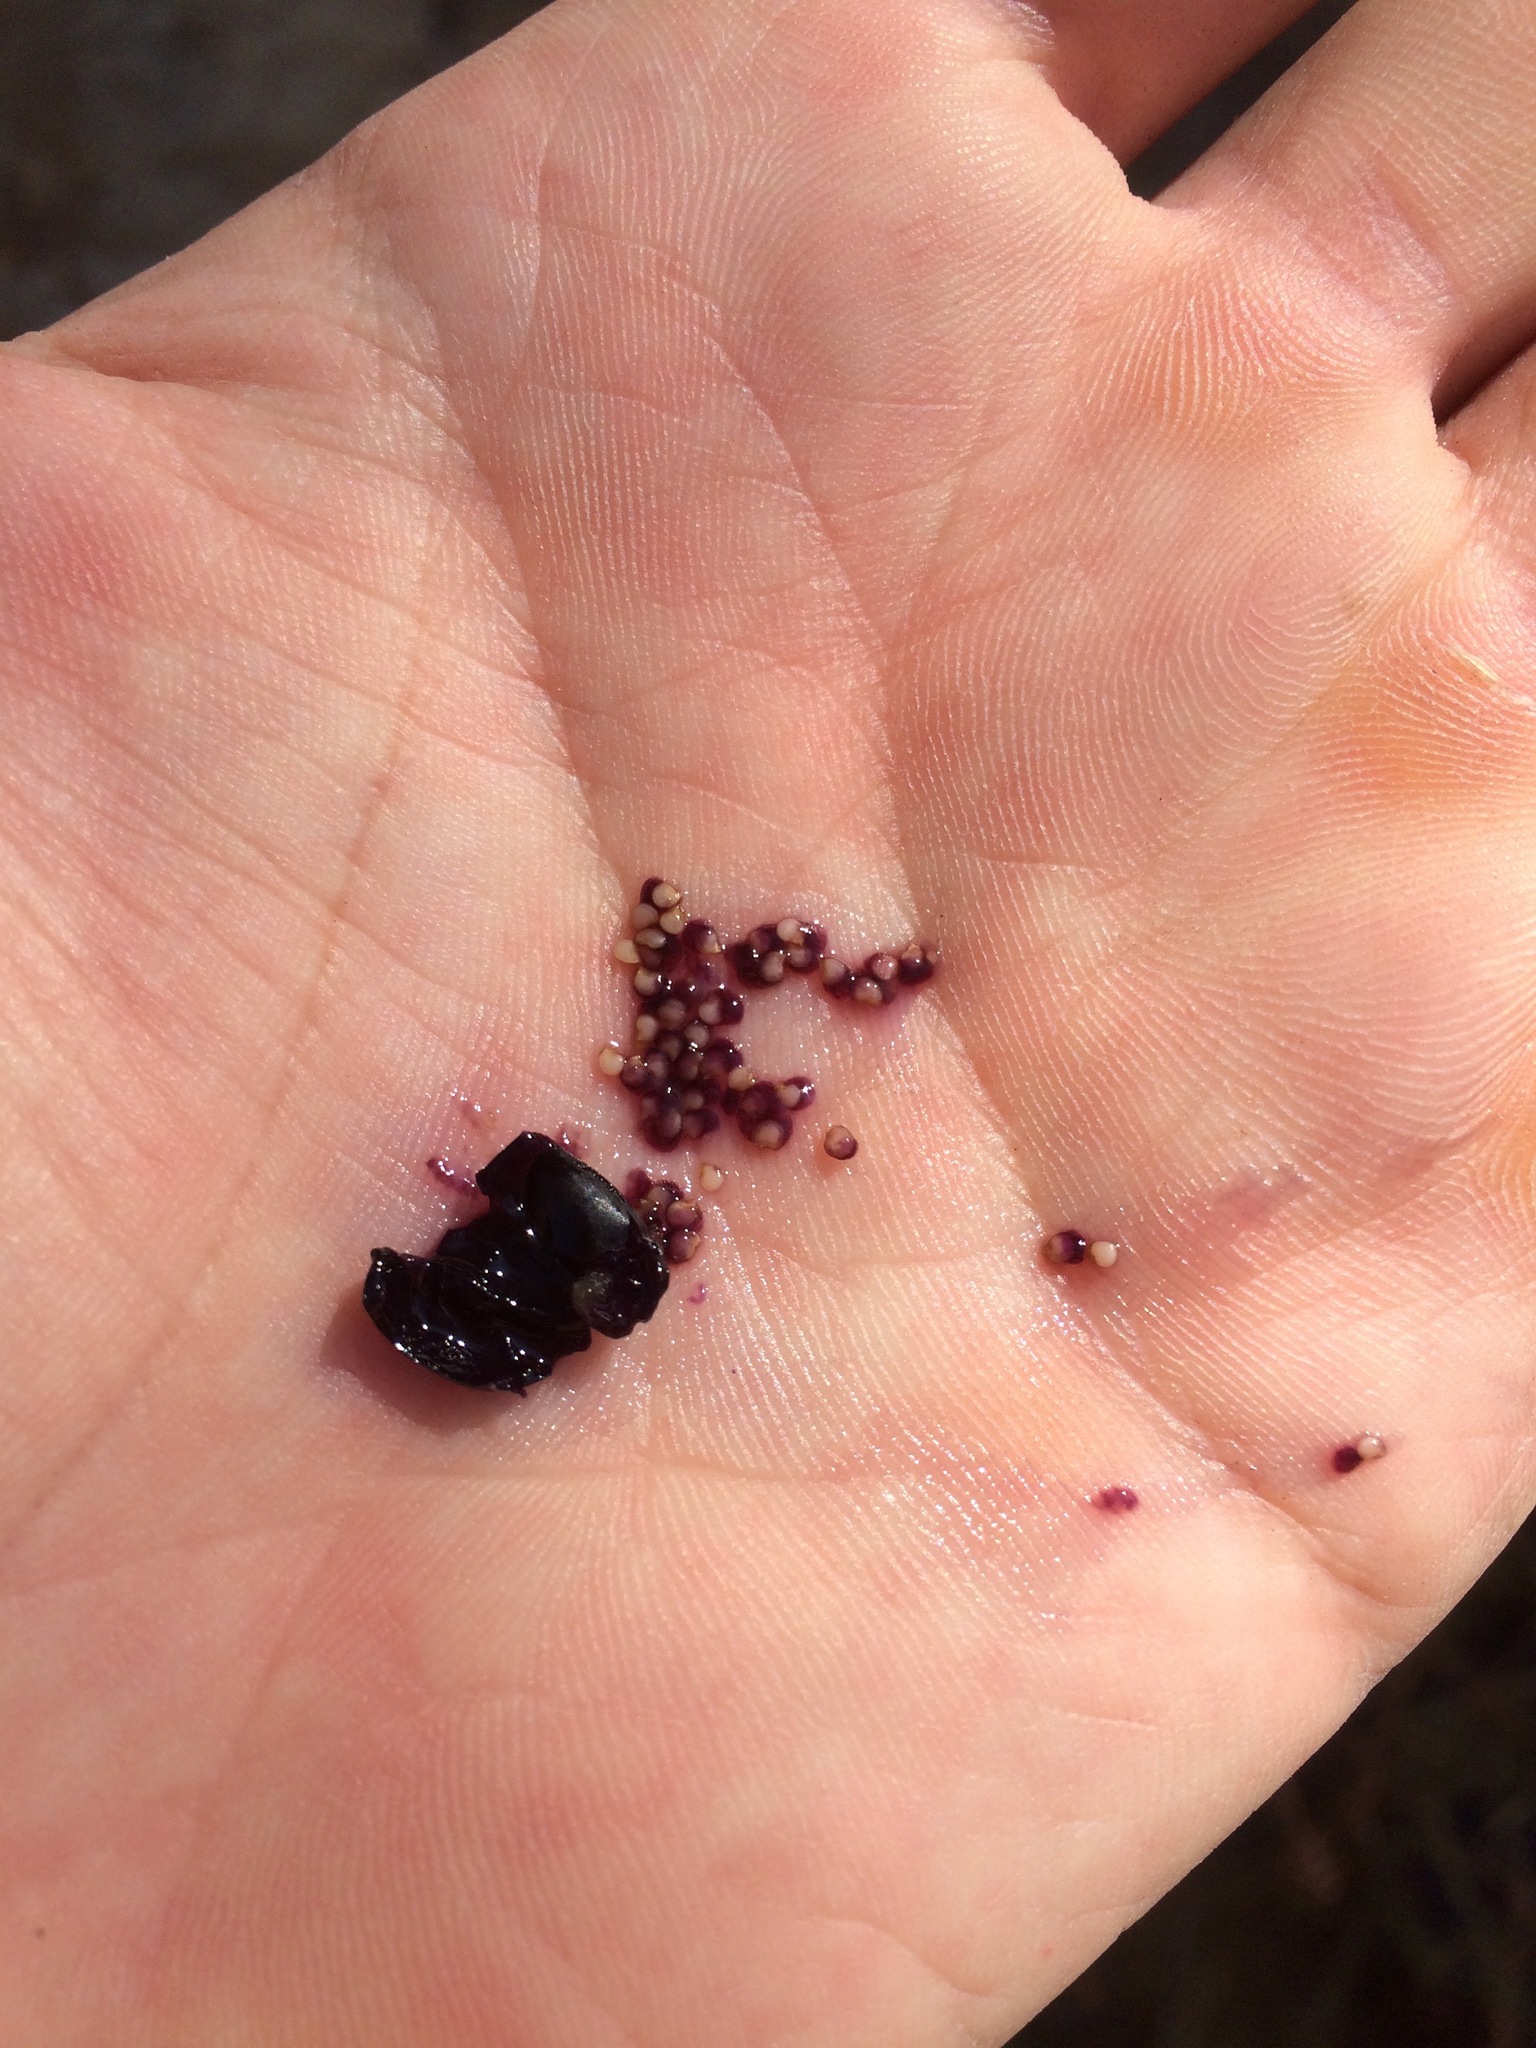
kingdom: Plantae
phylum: Tracheophyta
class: Magnoliopsida
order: Solanales
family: Solanaceae
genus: Solanum
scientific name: Solanum douglasii
